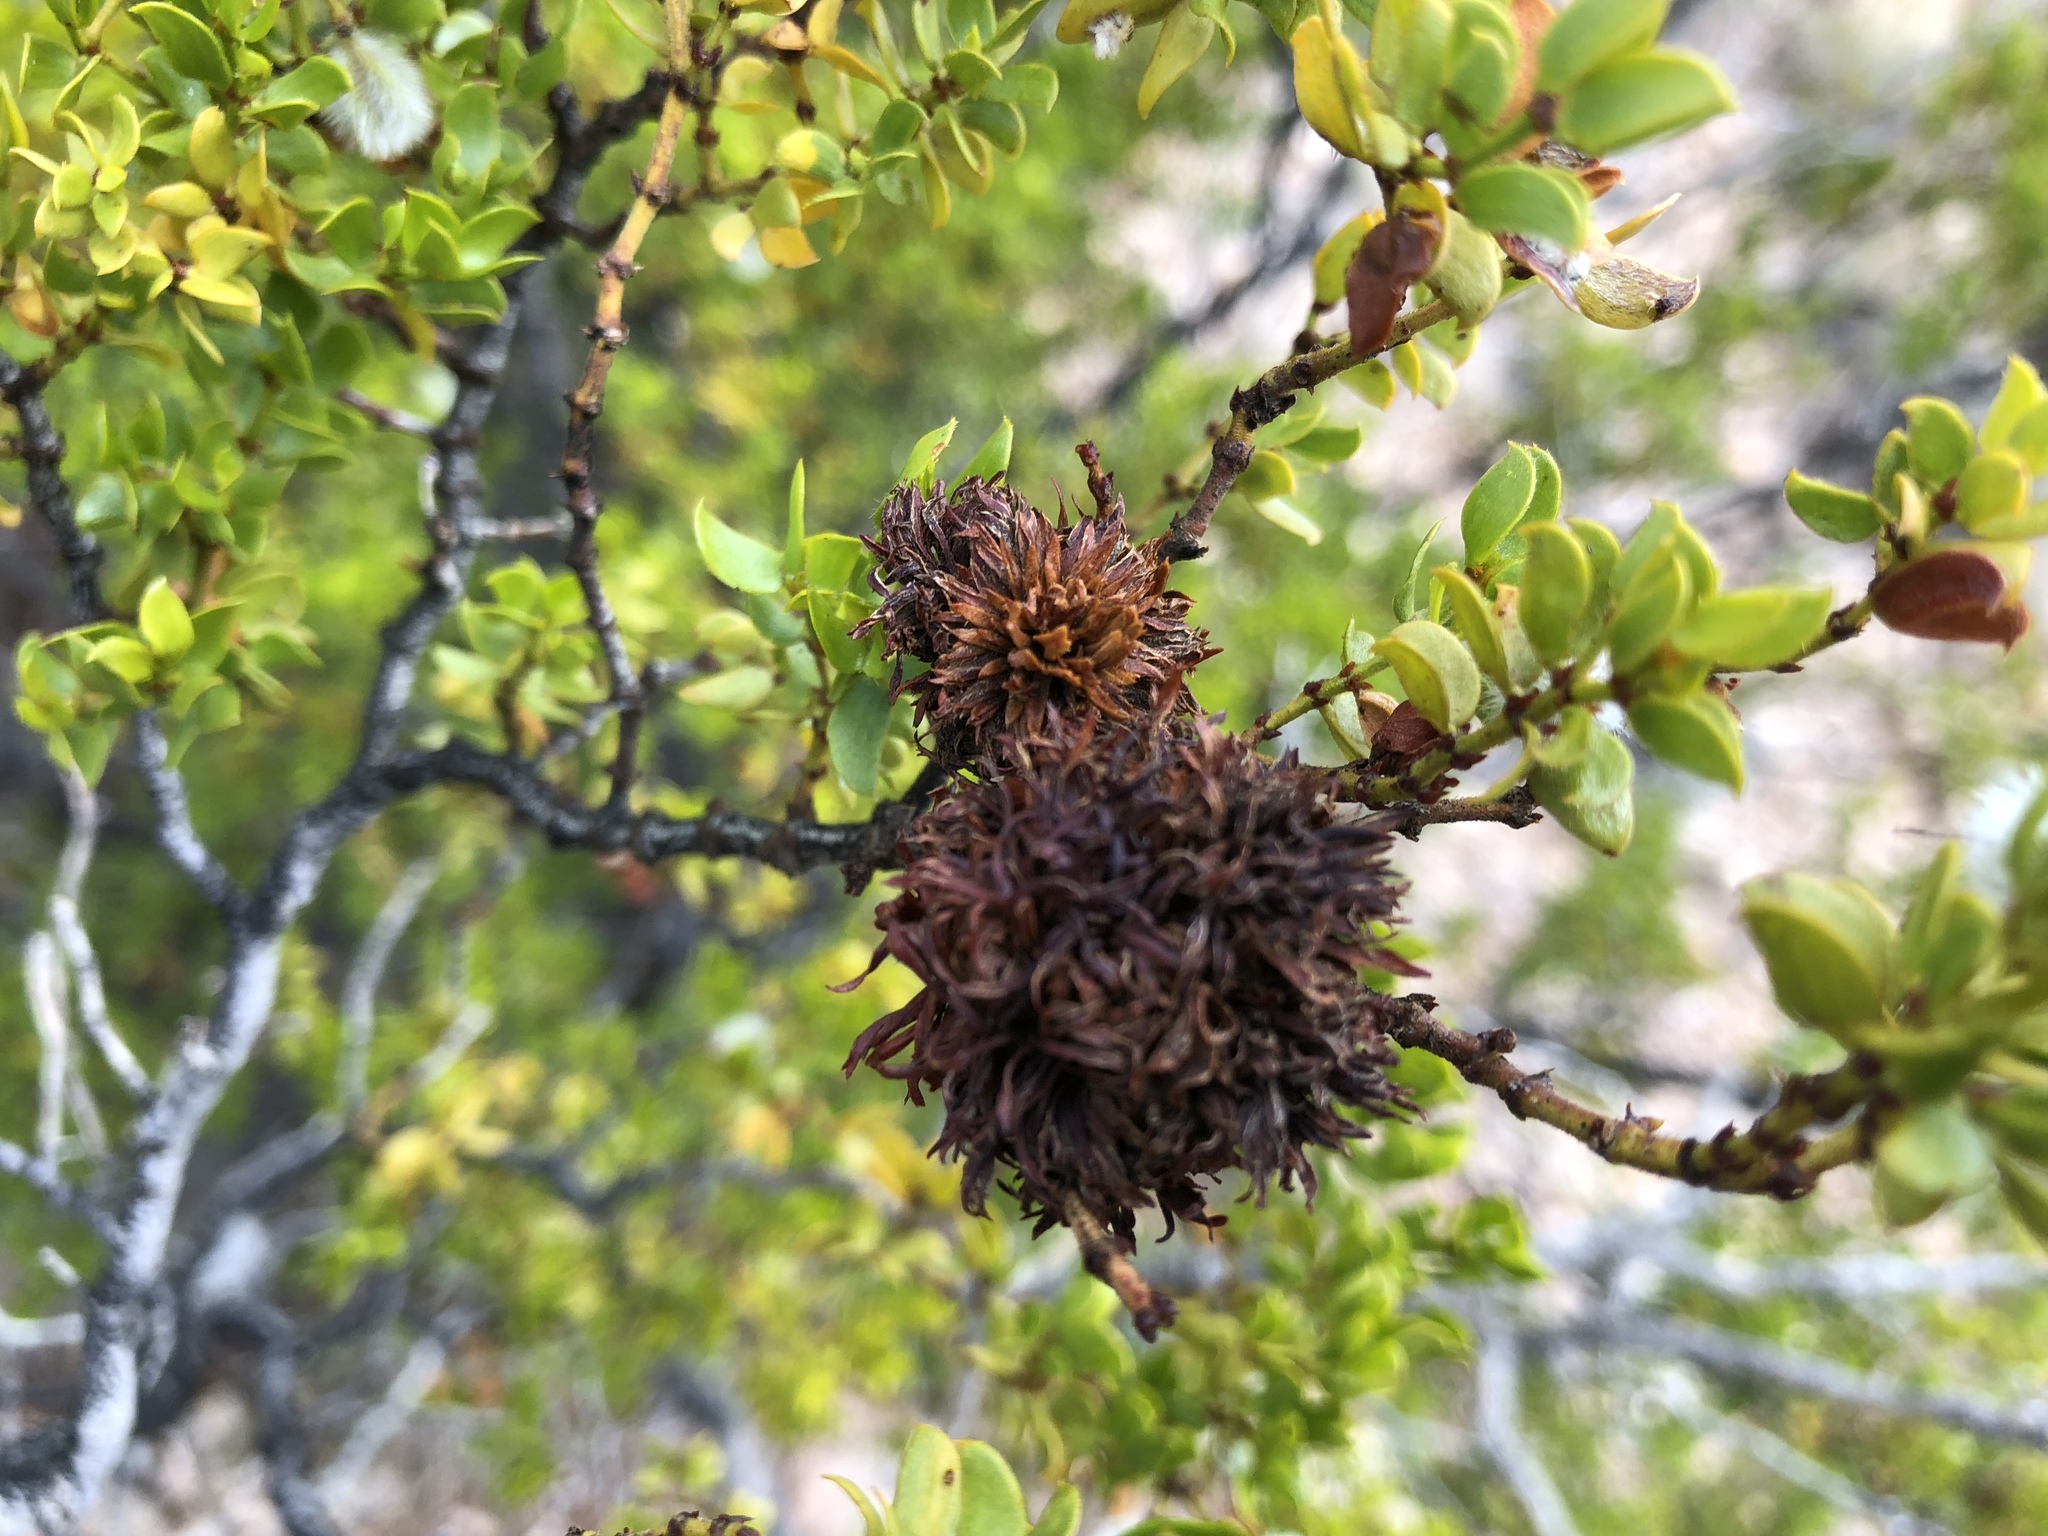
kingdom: Animalia
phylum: Arthropoda
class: Insecta
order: Diptera
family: Cecidomyiidae
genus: Asphondylia
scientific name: Asphondylia auripila
